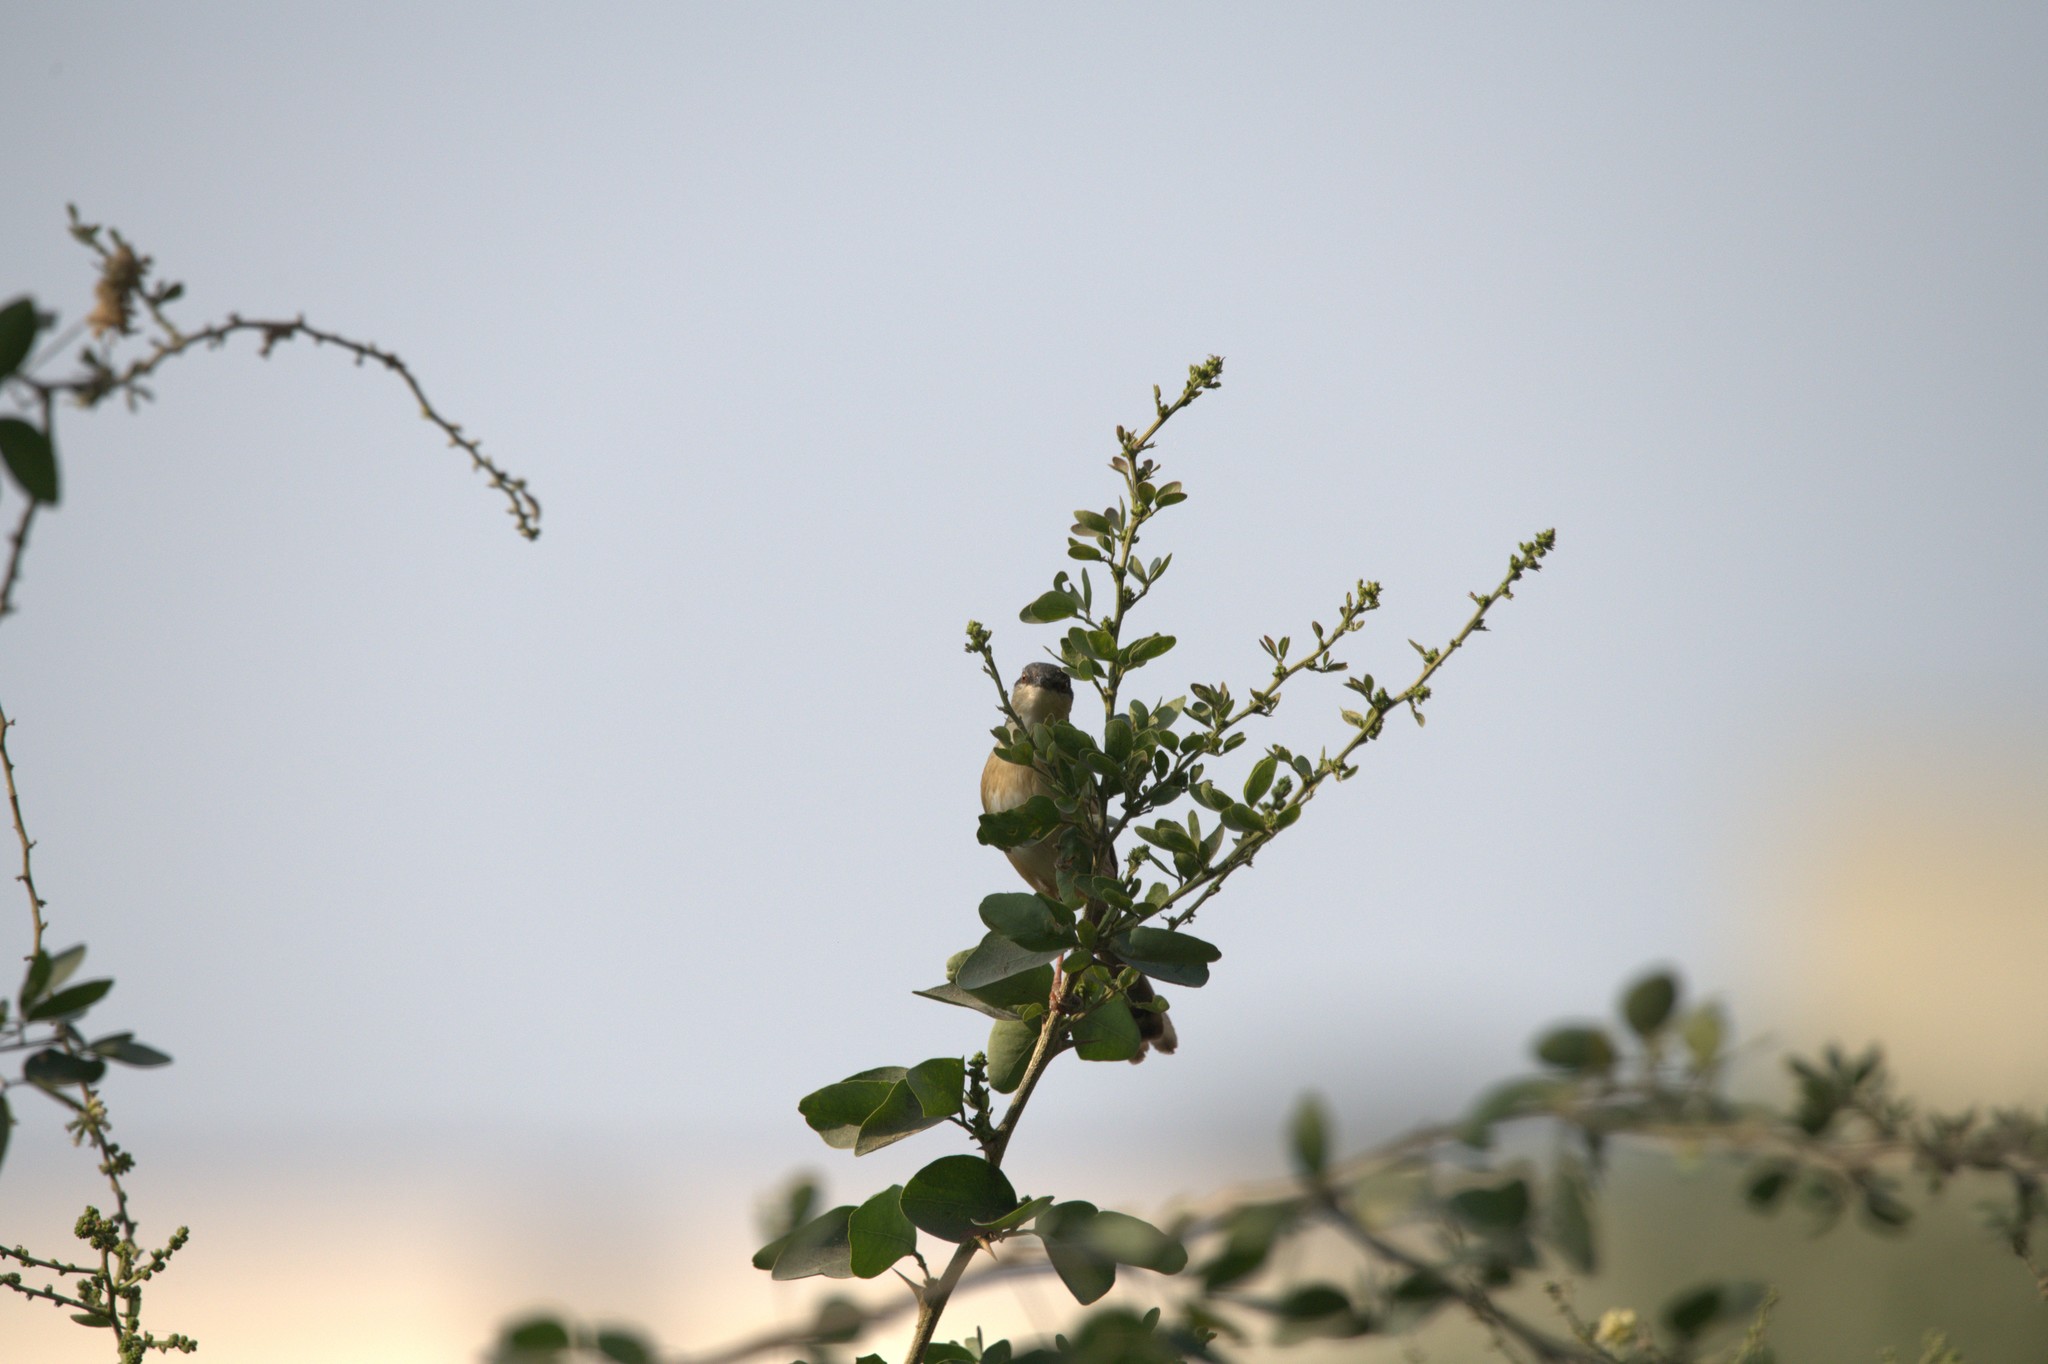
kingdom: Animalia
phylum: Chordata
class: Aves
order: Passeriformes
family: Nectariniidae
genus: Cinnyris
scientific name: Cinnyris asiaticus
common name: Purple sunbird
